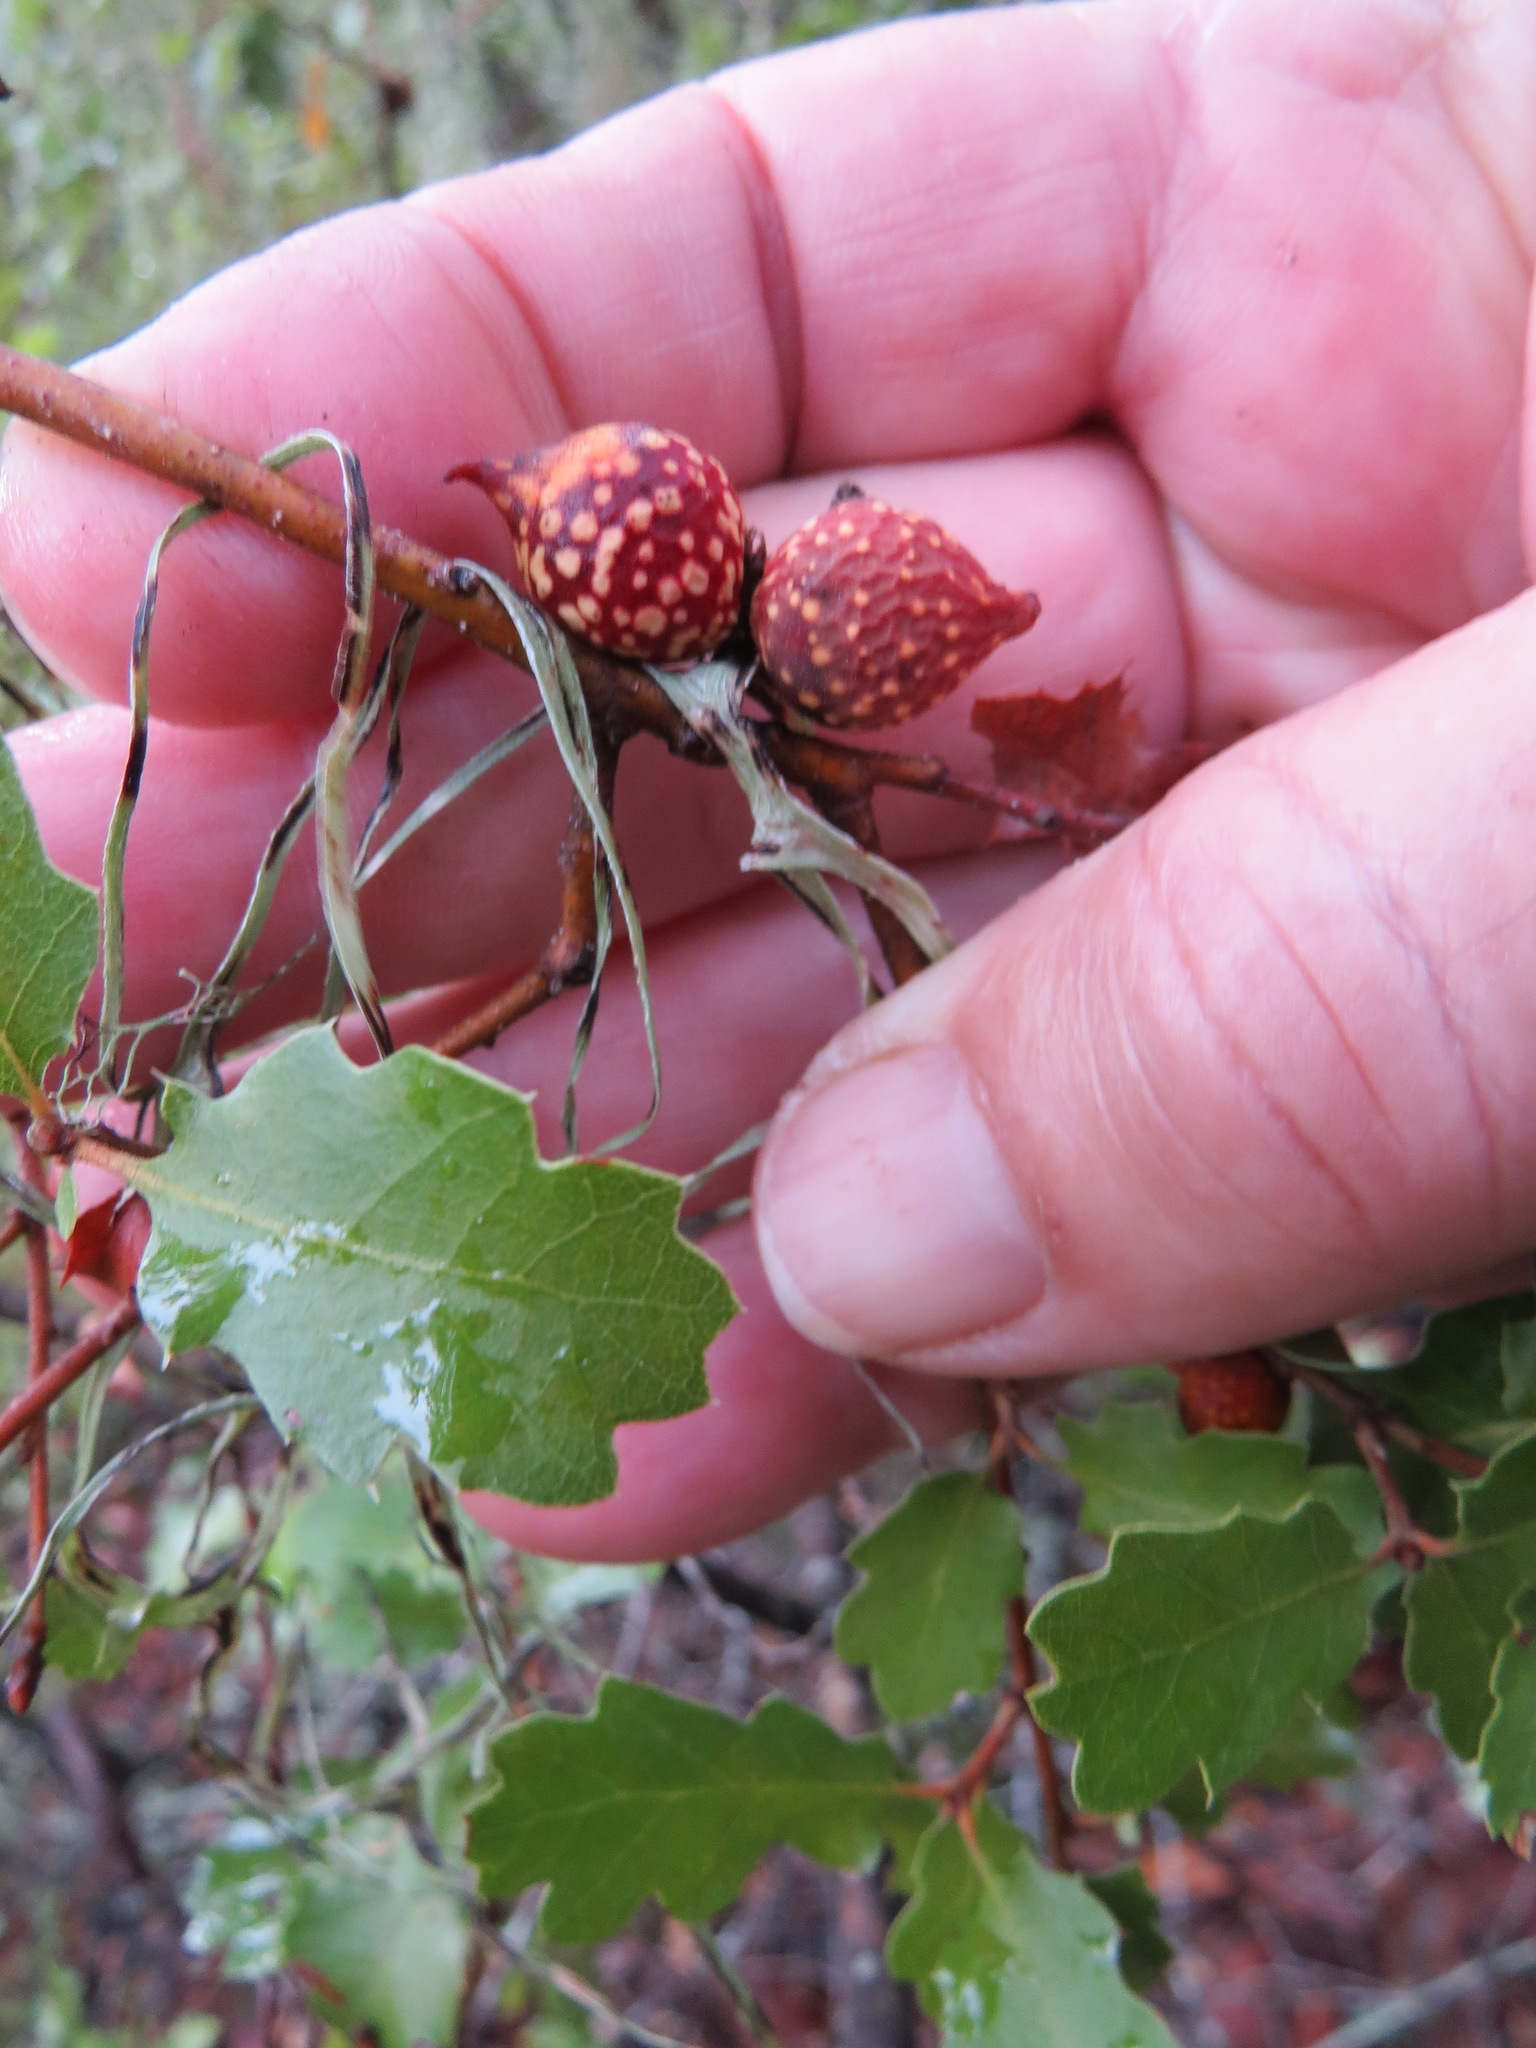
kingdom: Animalia
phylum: Arthropoda
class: Insecta
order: Hymenoptera
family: Cynipidae
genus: Burnettweldia
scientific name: Burnettweldia
